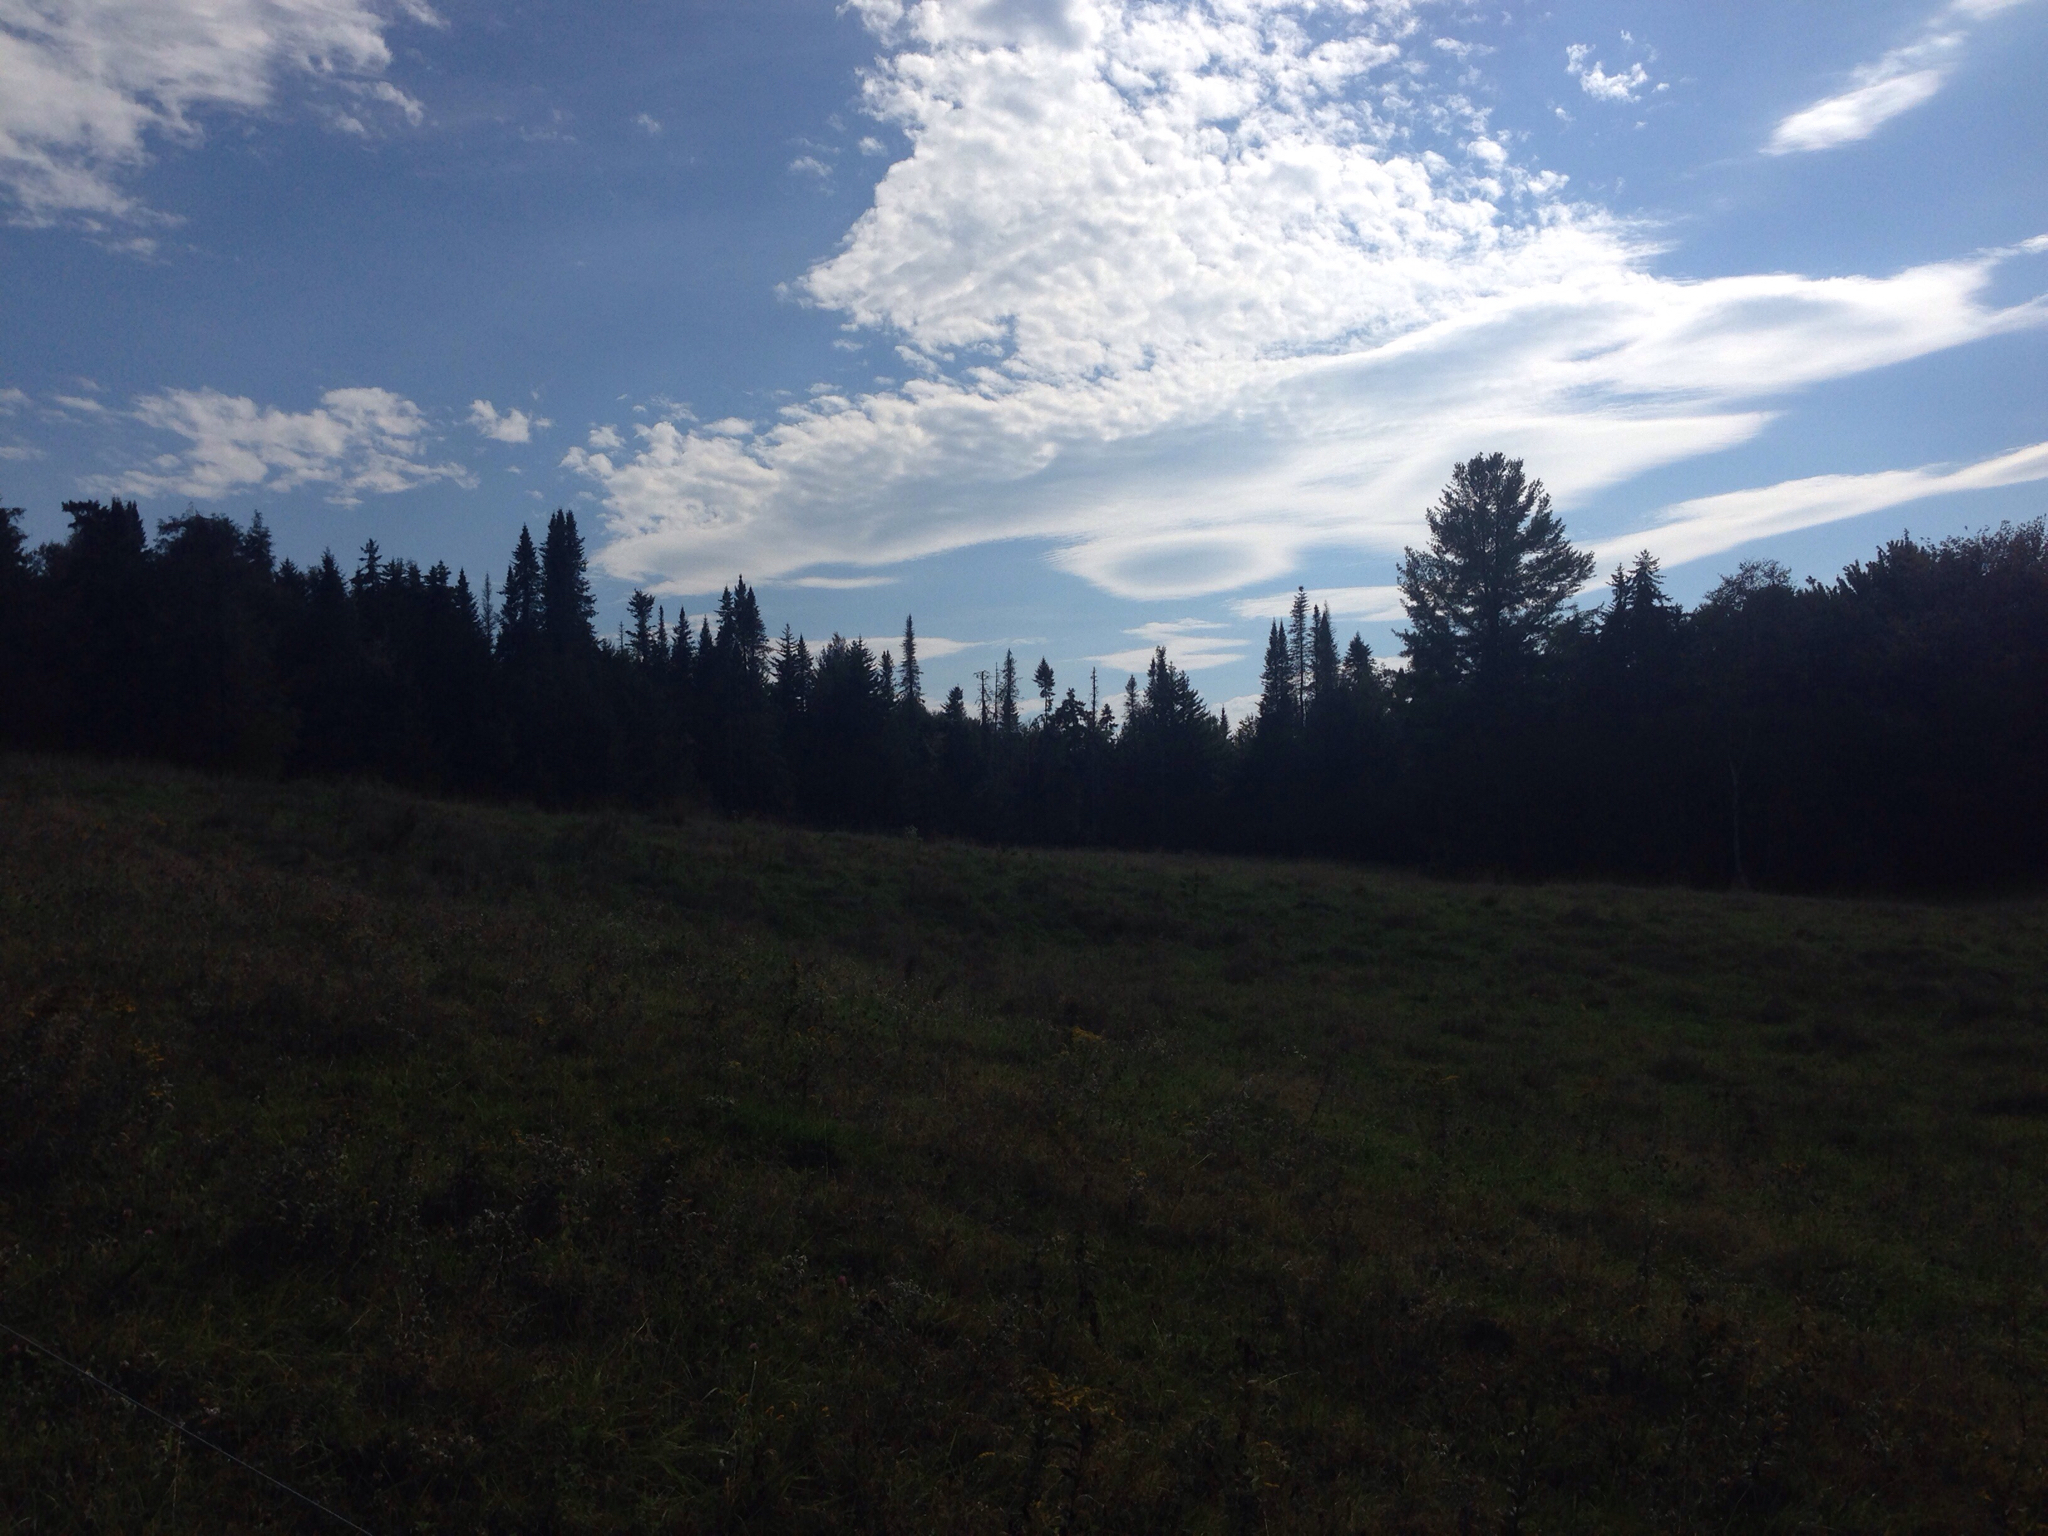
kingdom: Plantae
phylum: Tracheophyta
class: Pinopsida
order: Pinales
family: Pinaceae
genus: Abies
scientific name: Abies balsamea
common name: Balsam fir
